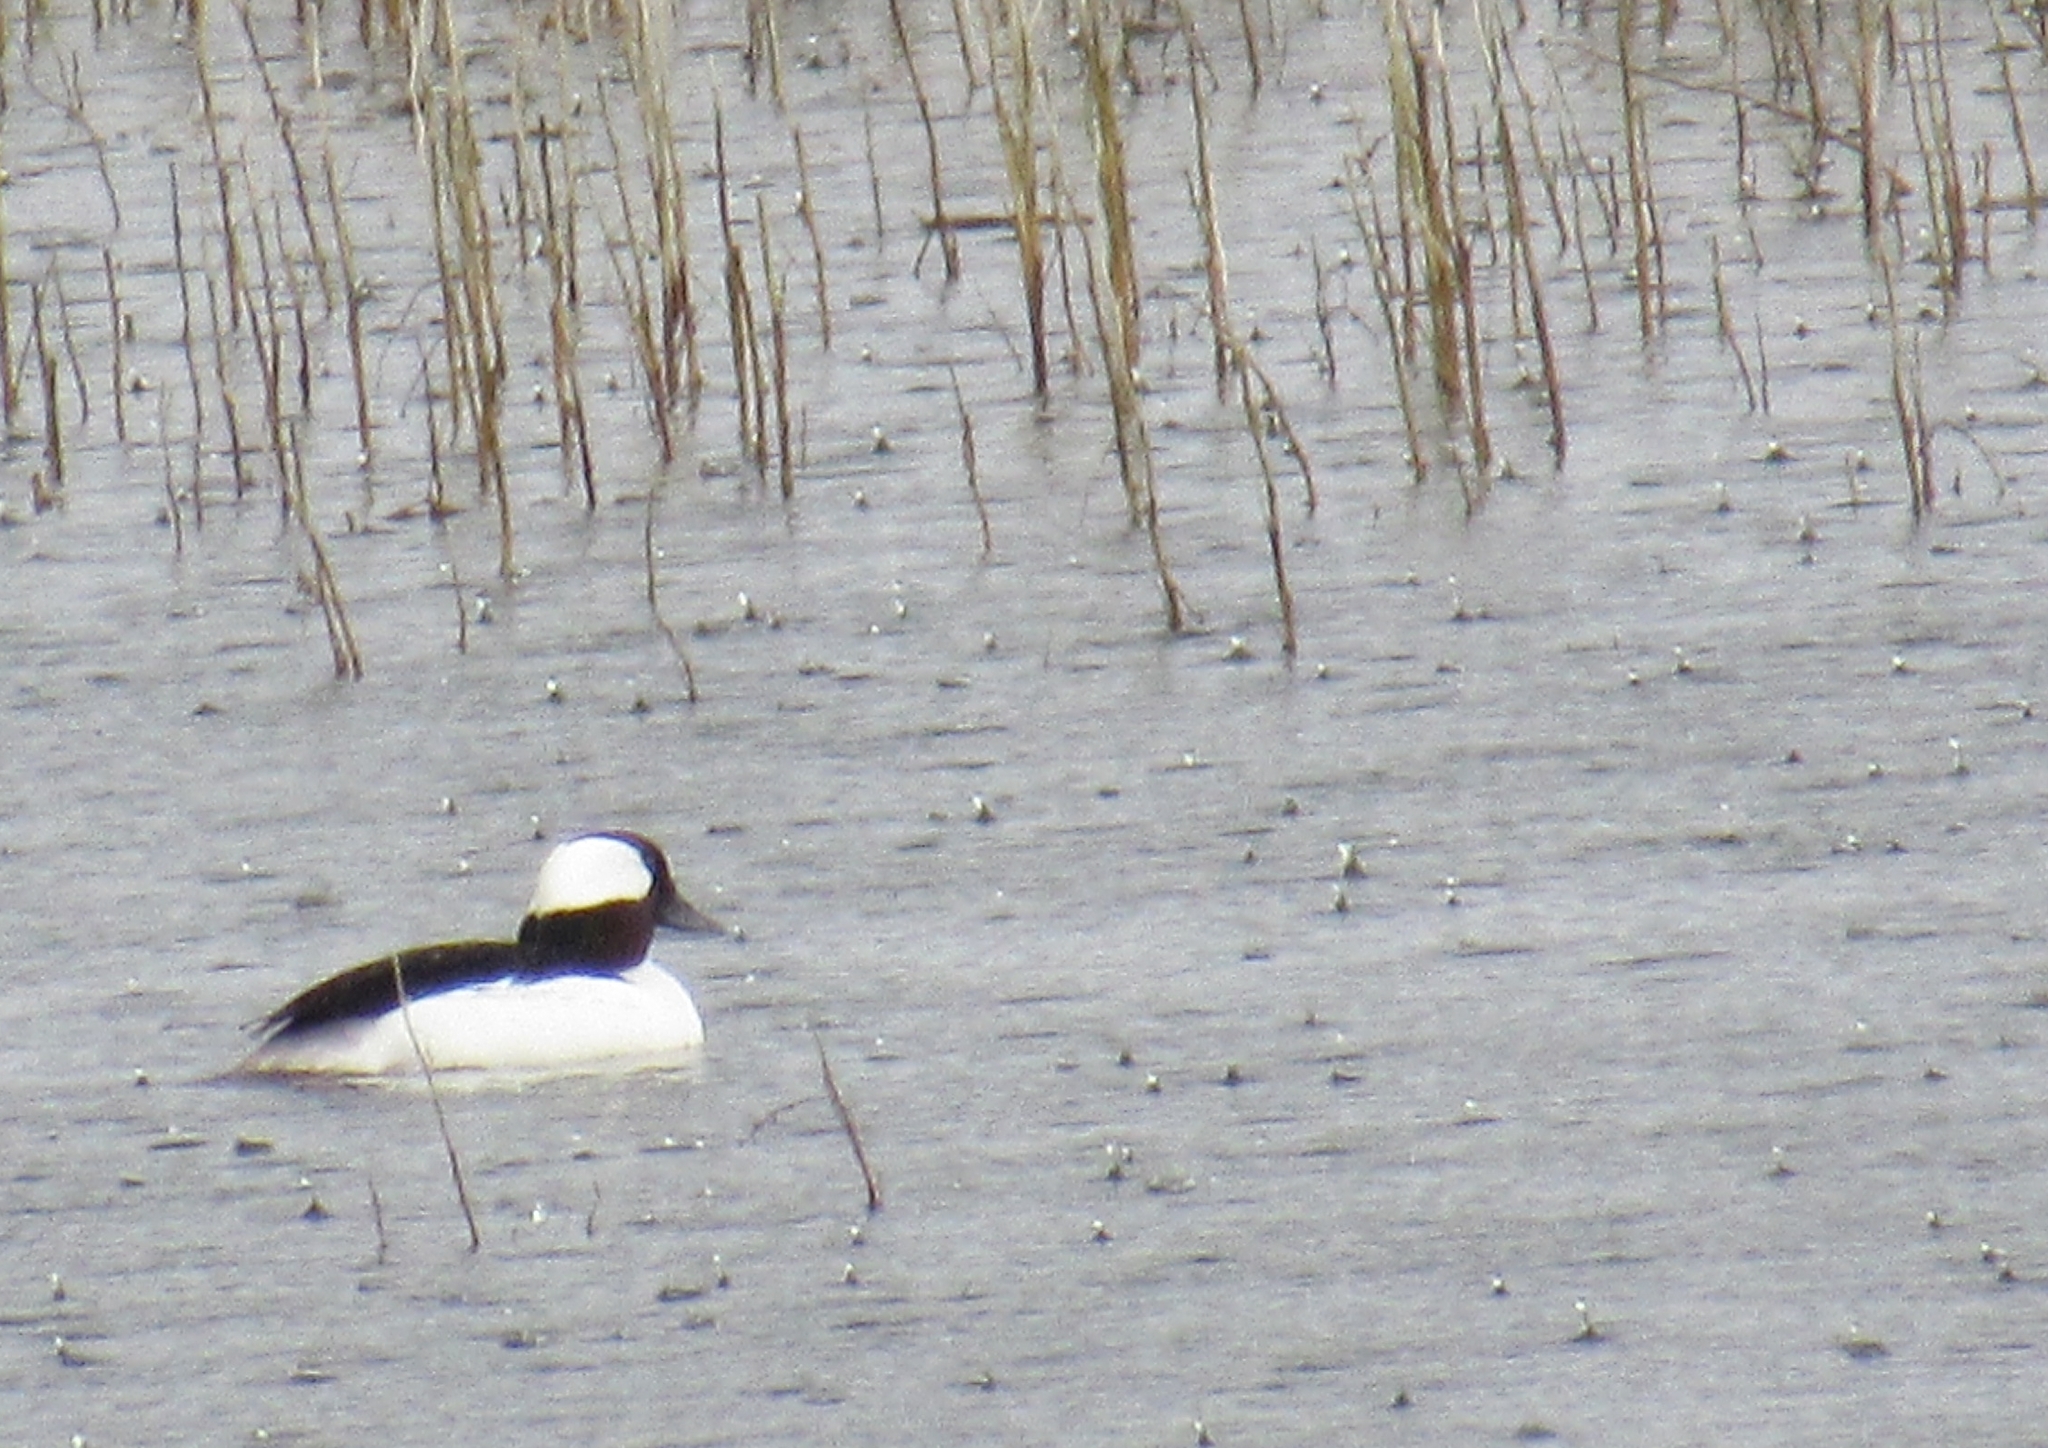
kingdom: Animalia
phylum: Chordata
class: Aves
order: Anseriformes
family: Anatidae
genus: Bucephala
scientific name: Bucephala albeola
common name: Bufflehead
